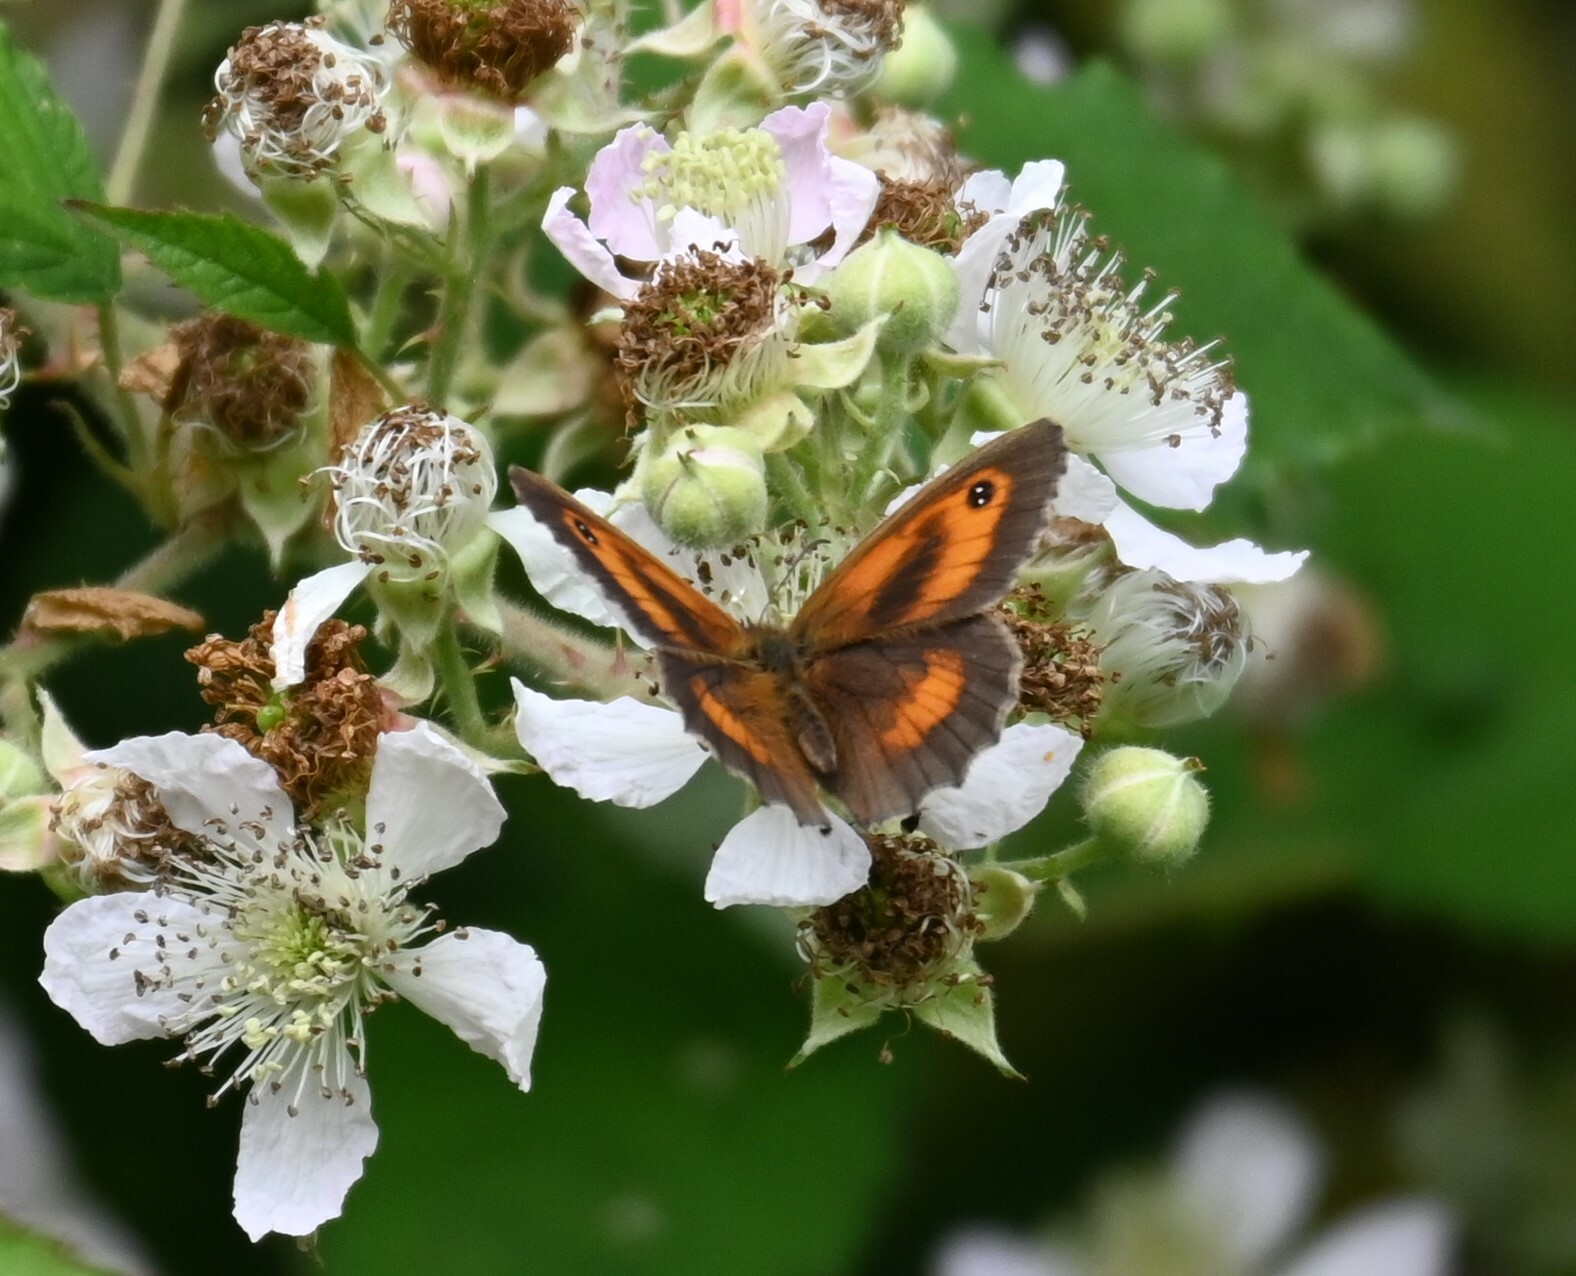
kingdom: Animalia
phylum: Arthropoda
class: Insecta
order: Lepidoptera
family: Nymphalidae
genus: Pyronia
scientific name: Pyronia tithonus
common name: Gatekeeper
